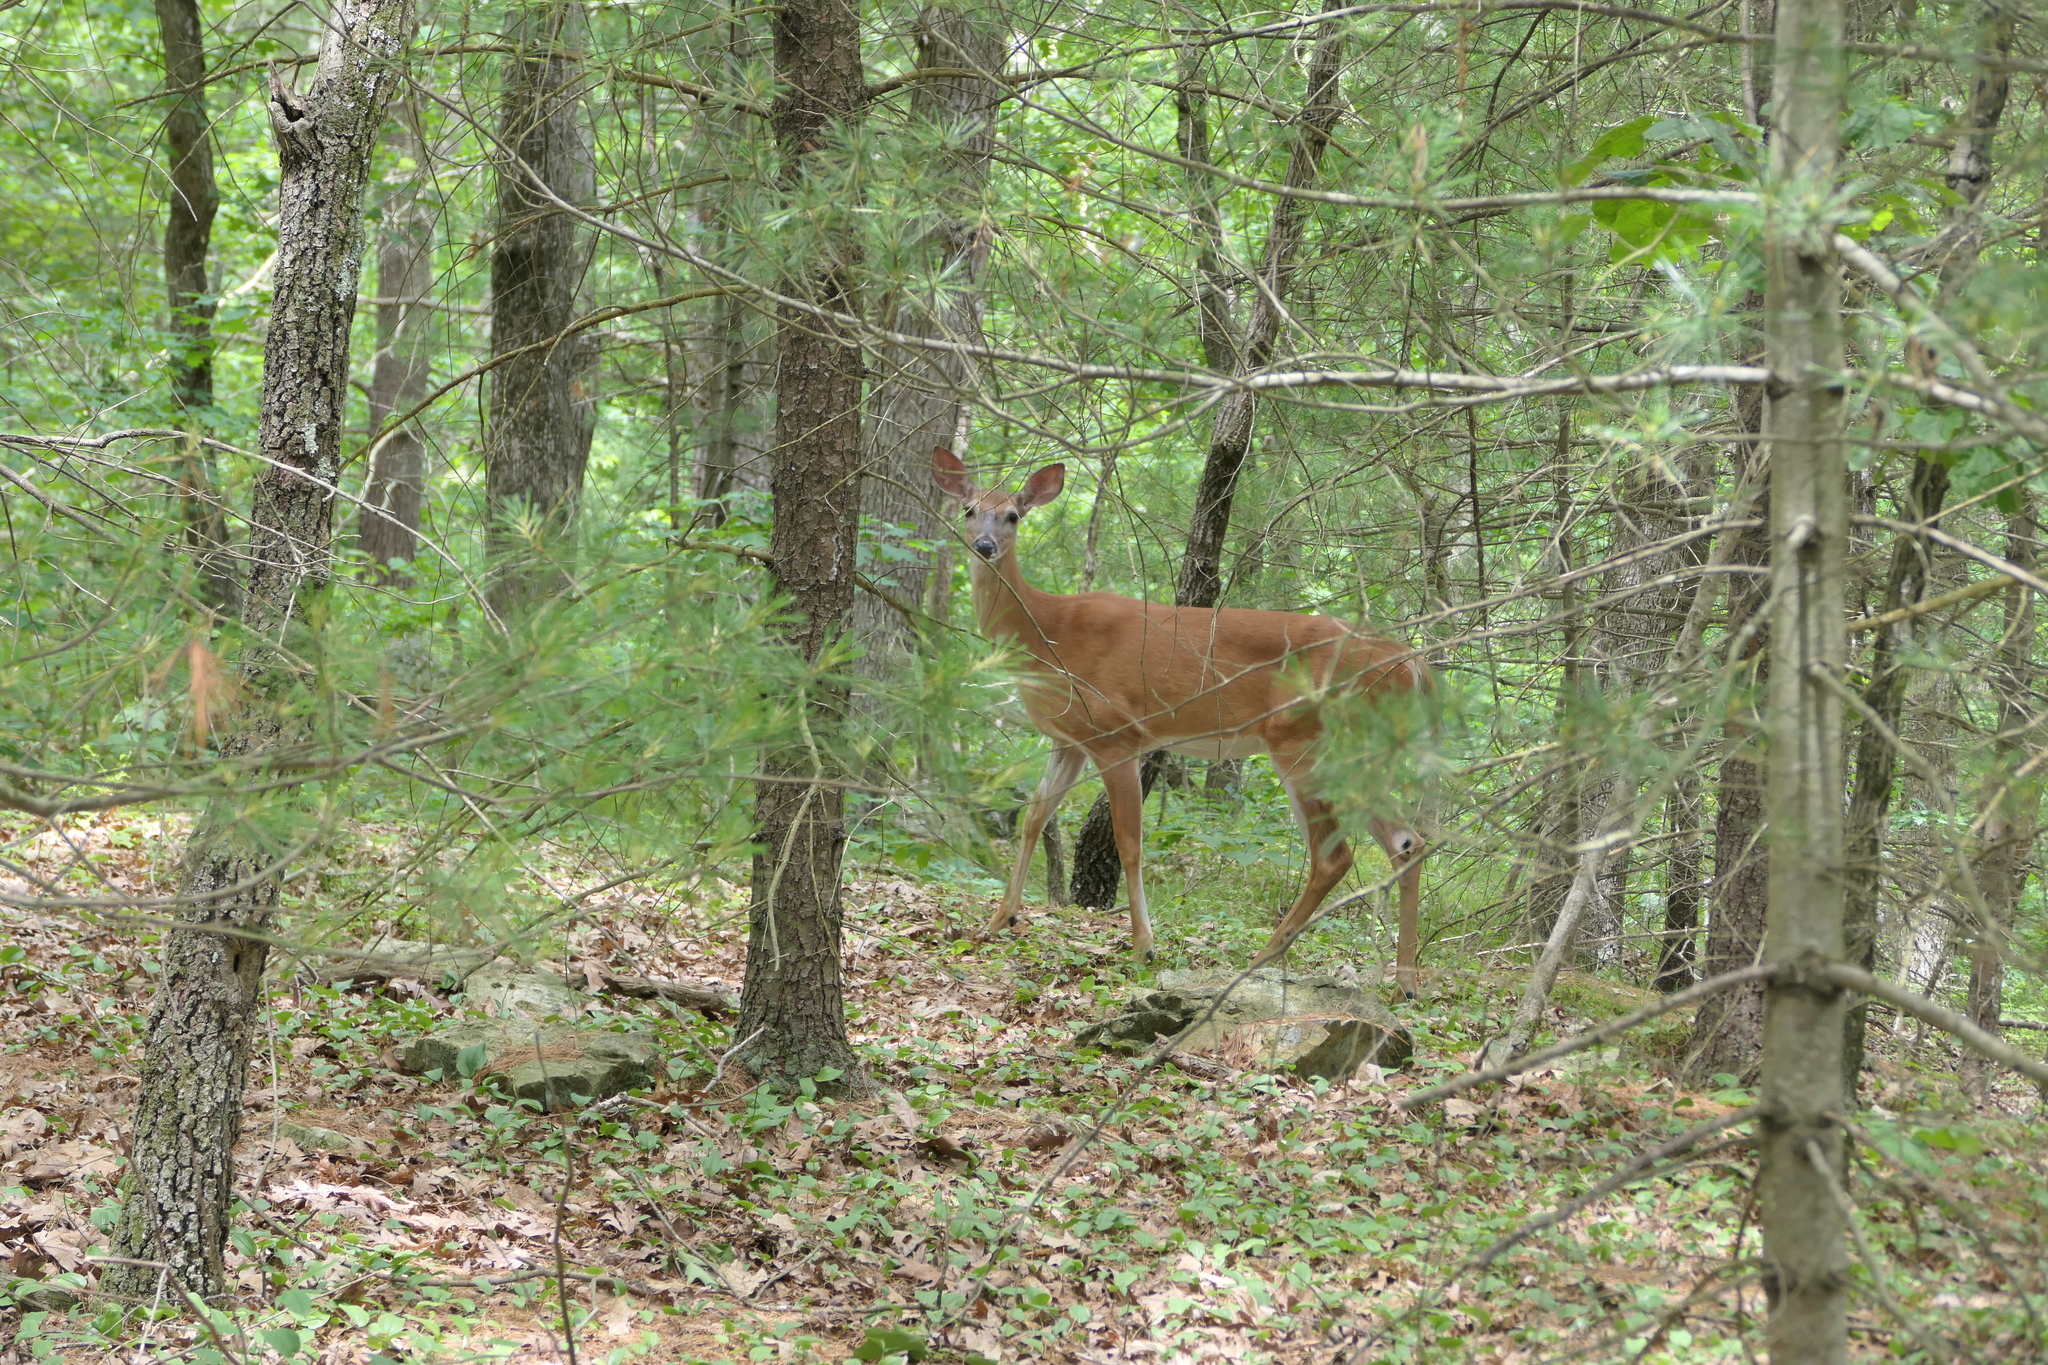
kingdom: Animalia
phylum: Chordata
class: Mammalia
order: Artiodactyla
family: Cervidae
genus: Odocoileus
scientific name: Odocoileus virginianus
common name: White-tailed deer
